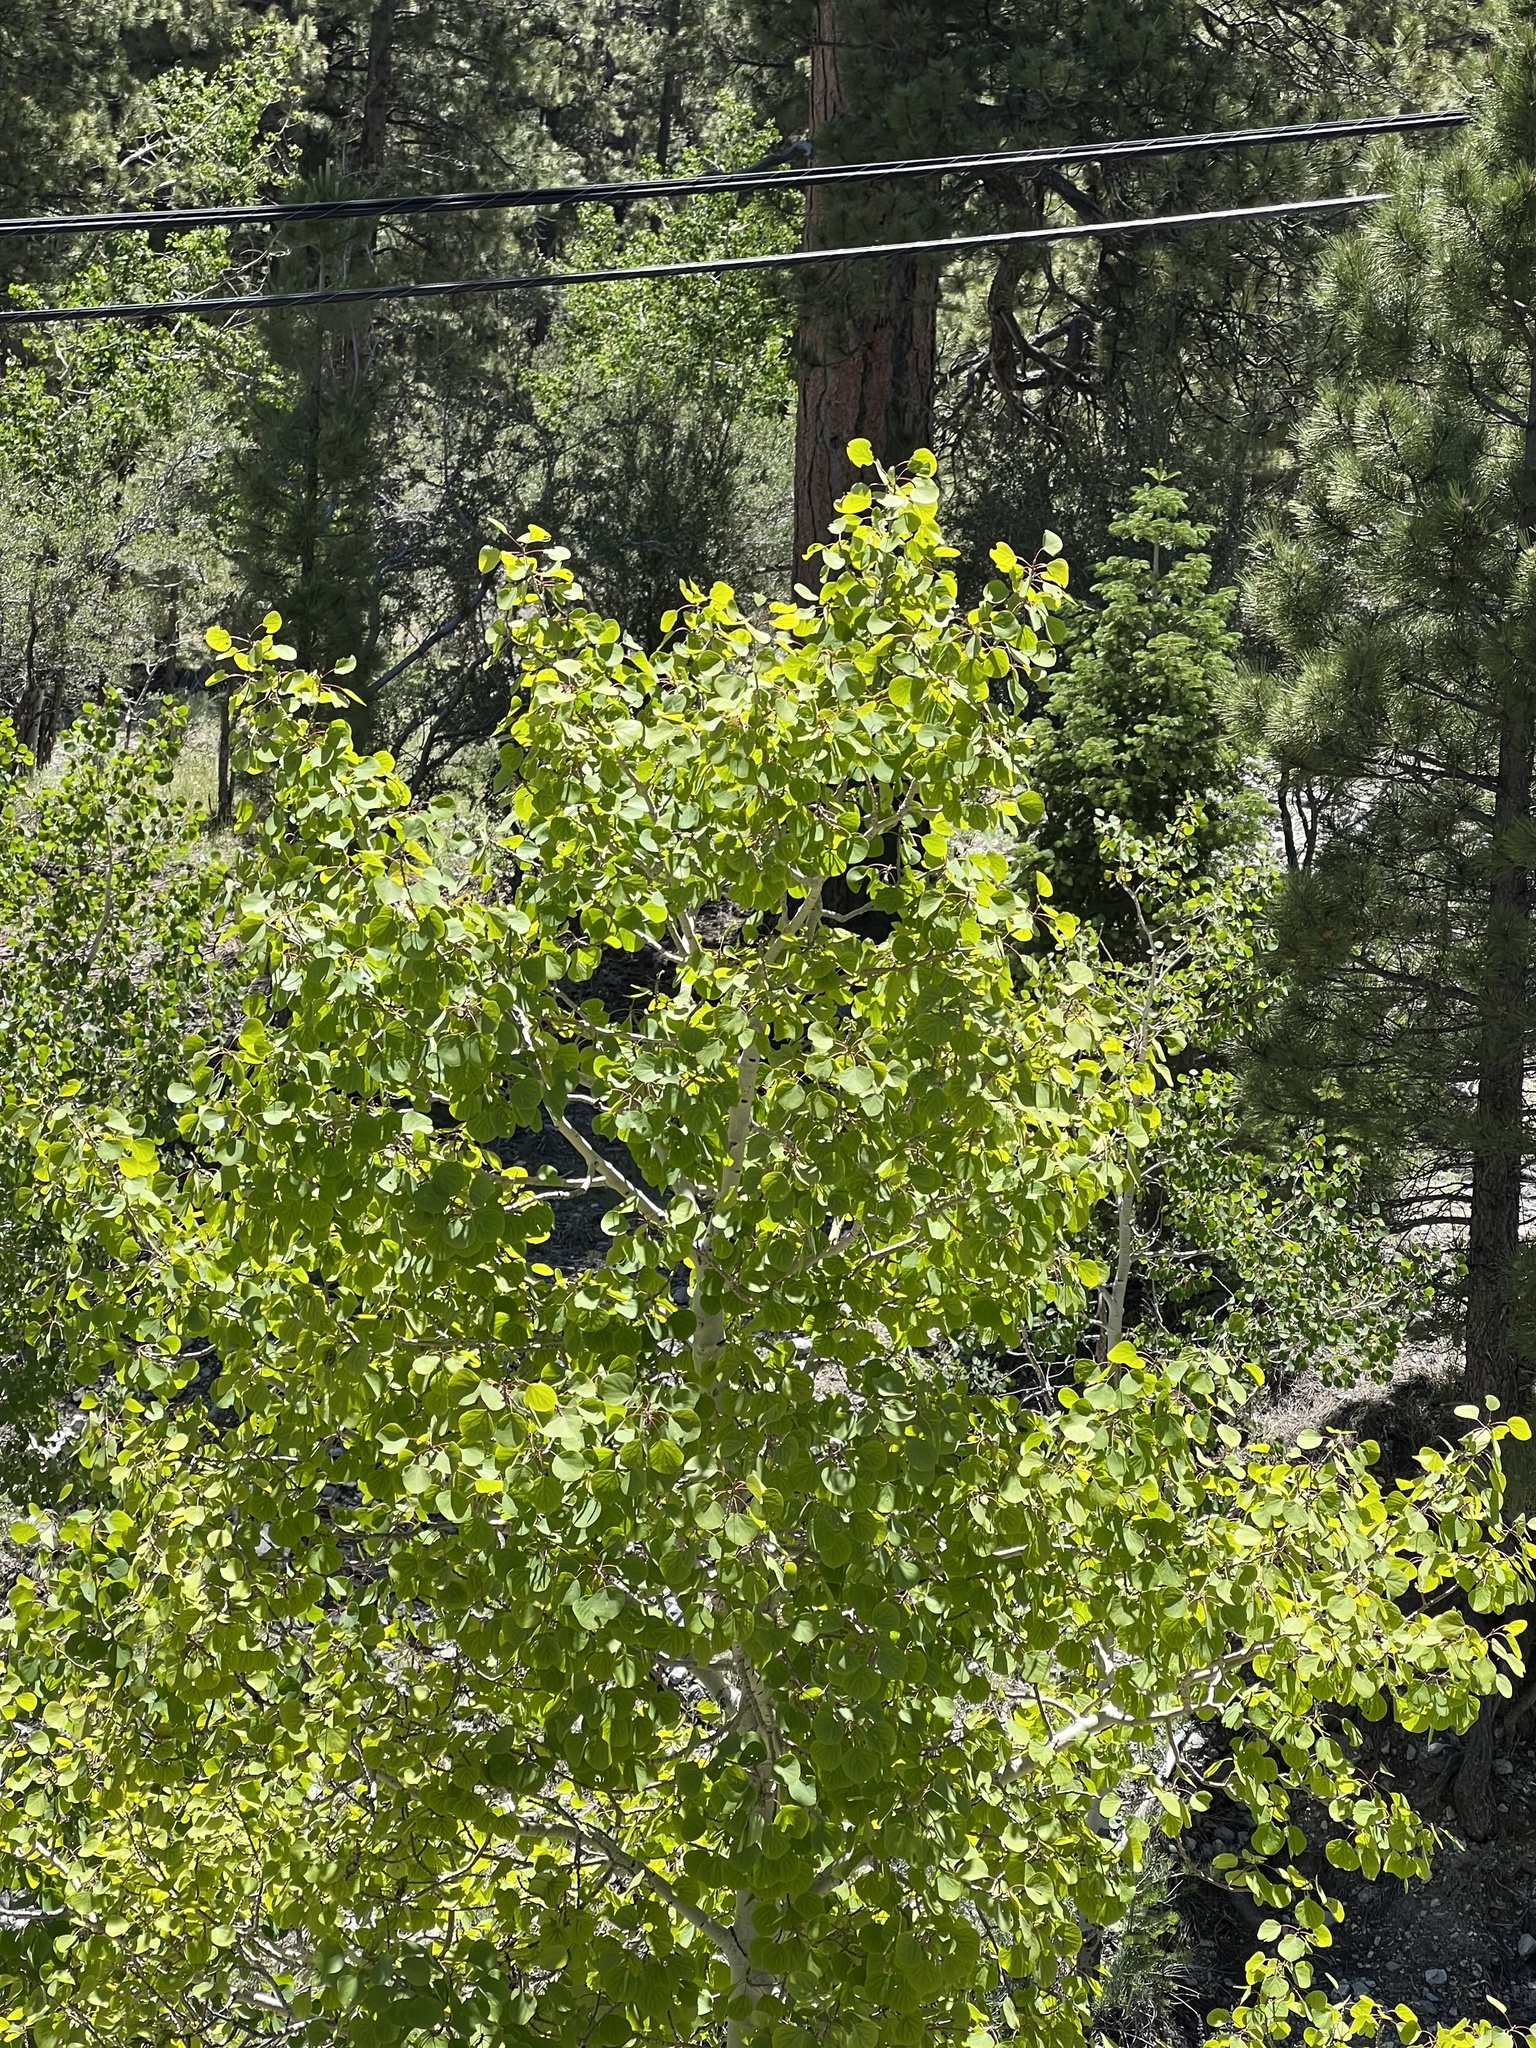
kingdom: Plantae
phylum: Tracheophyta
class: Magnoliopsida
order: Malpighiales
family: Salicaceae
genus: Populus
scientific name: Populus tremuloides
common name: Quaking aspen
